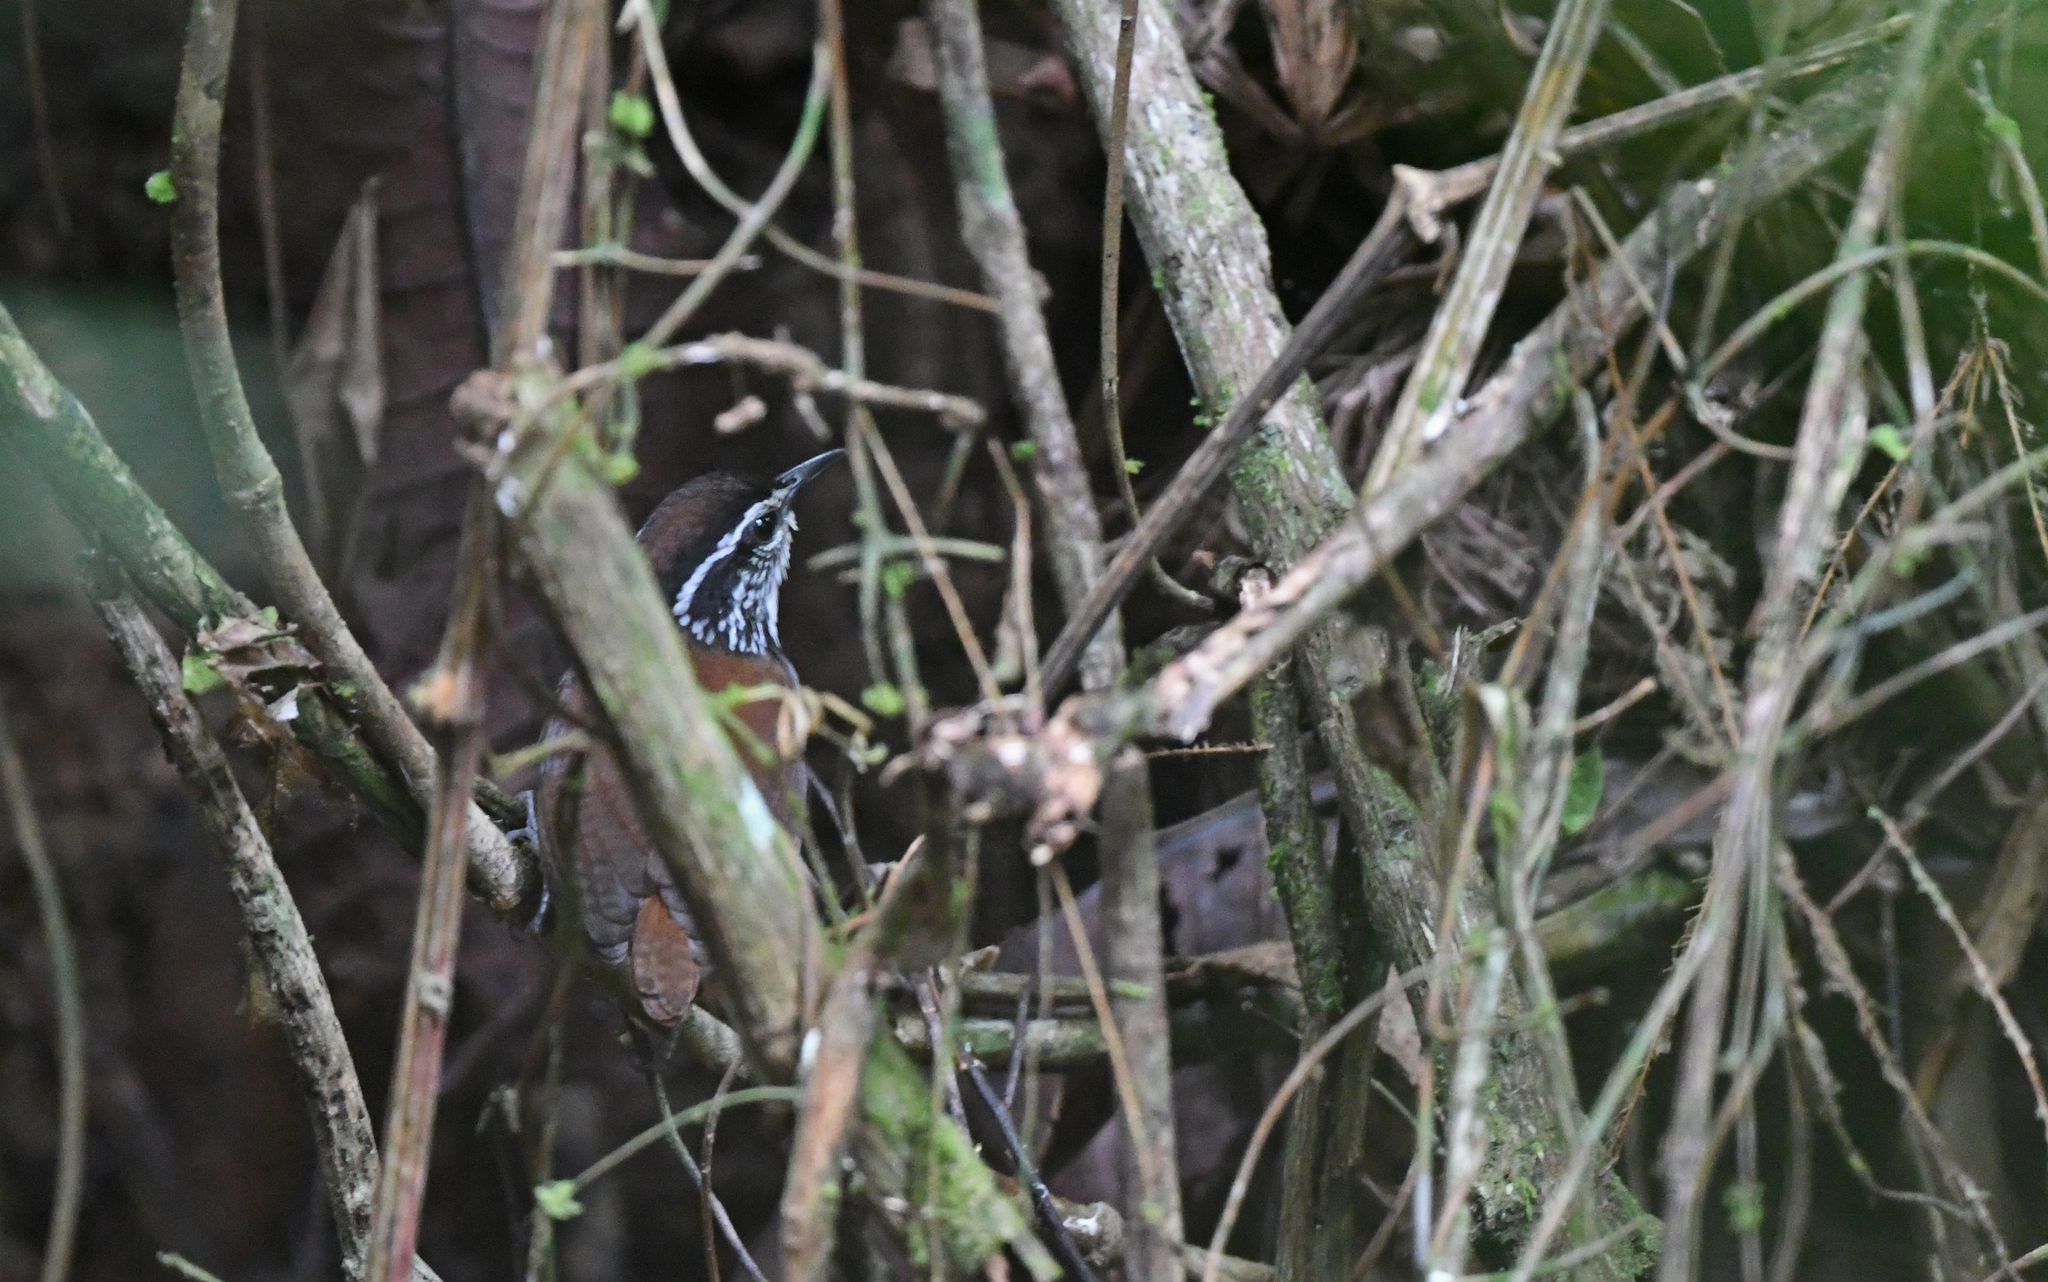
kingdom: Animalia
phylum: Chordata
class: Aves
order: Passeriformes
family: Troglodytidae
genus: Henicorhina
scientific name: Henicorhina leucosticta
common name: White-breasted wood-wren
